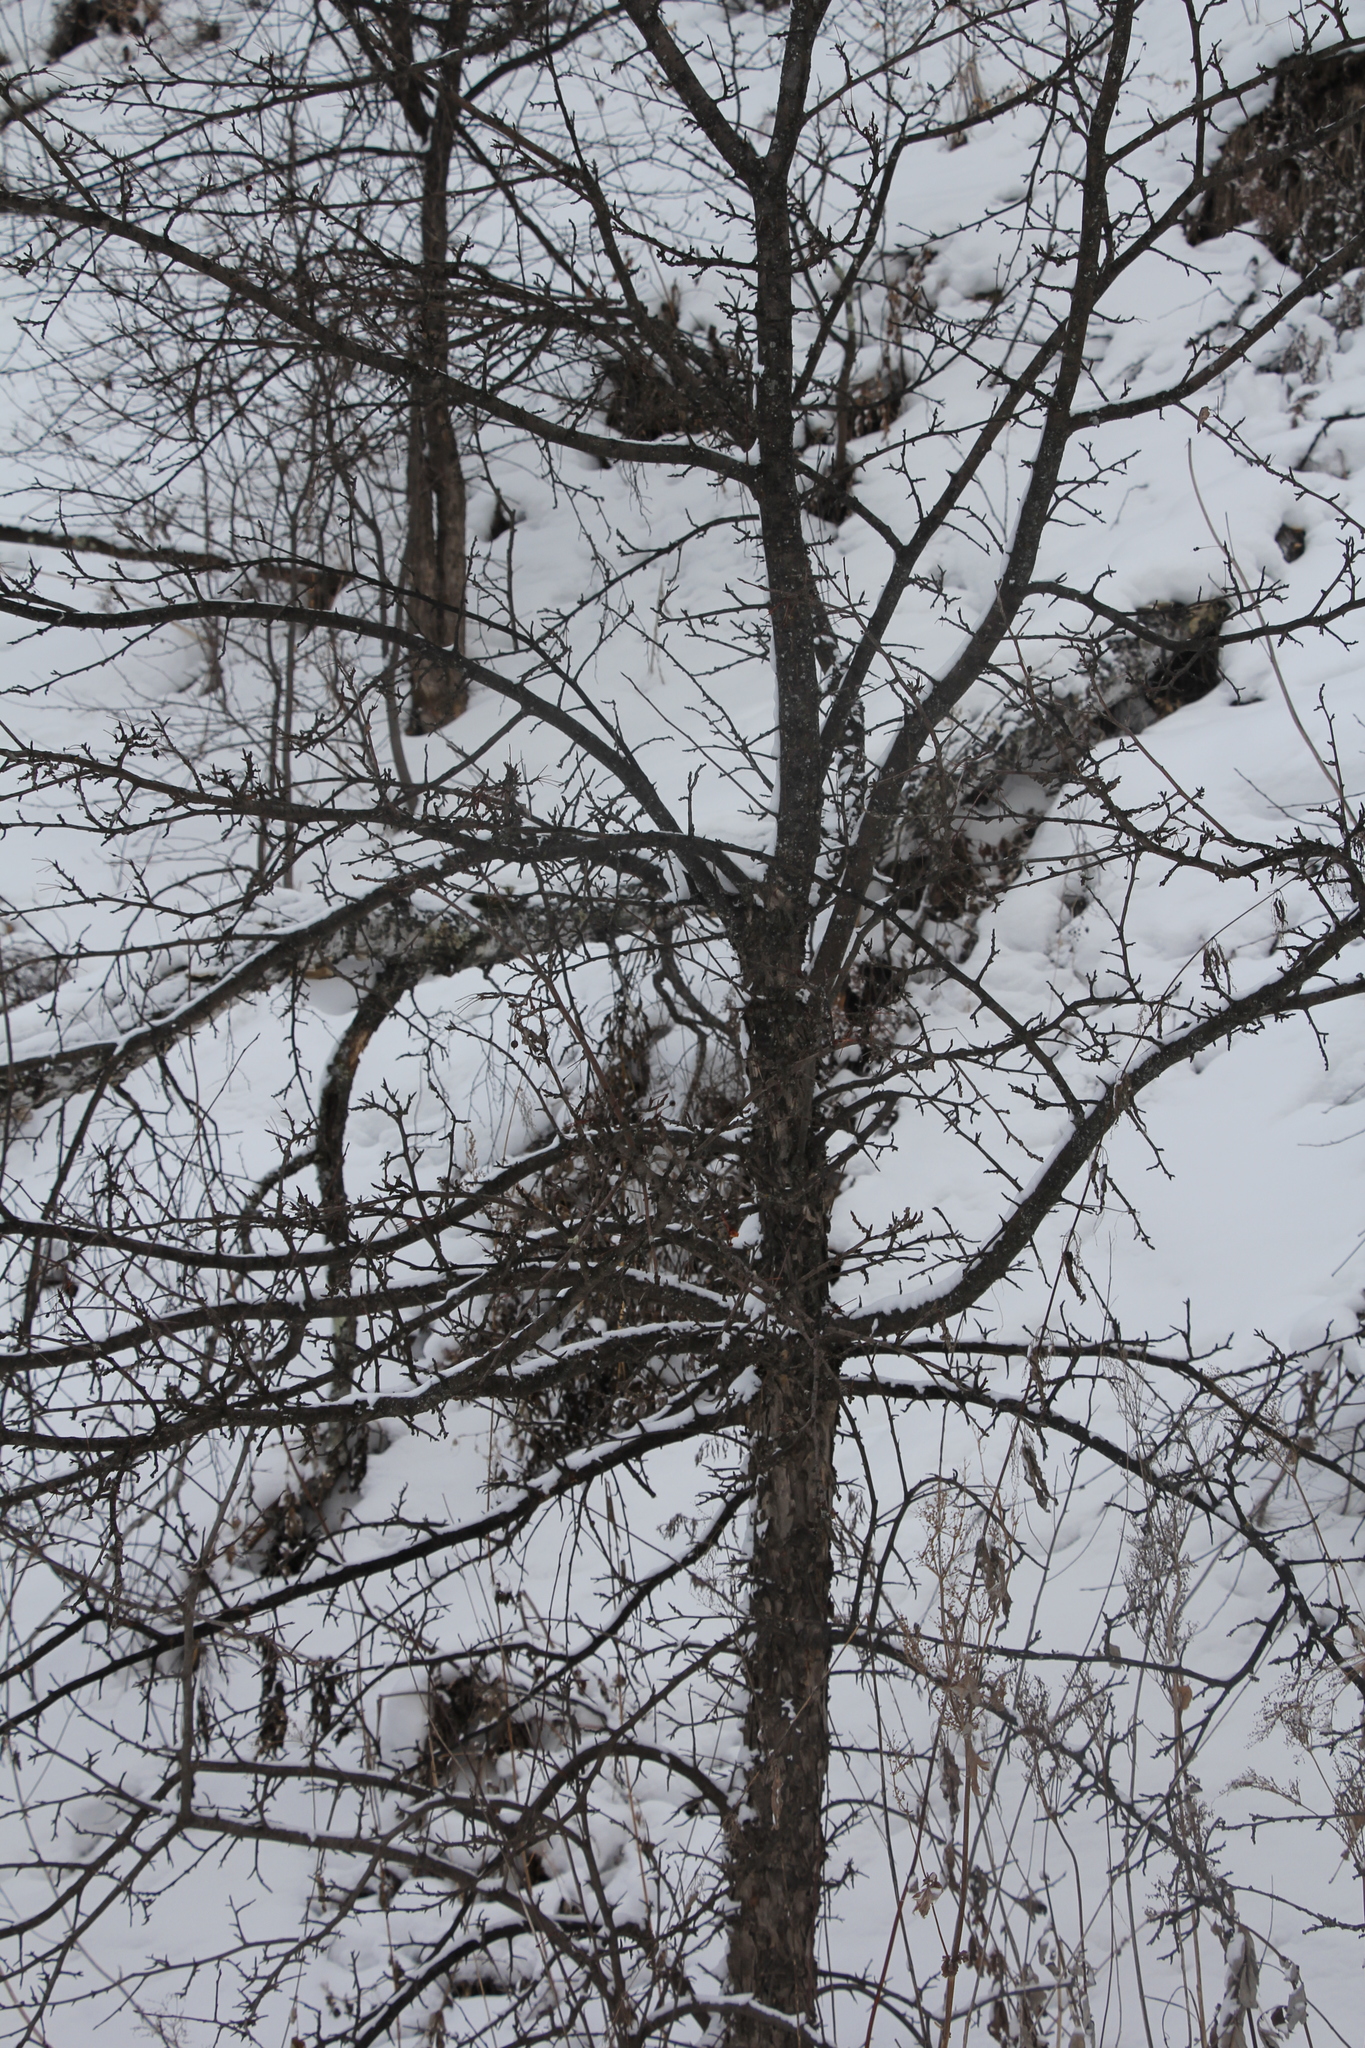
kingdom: Plantae
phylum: Tracheophyta
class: Magnoliopsida
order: Rosales
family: Rosaceae
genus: Malus
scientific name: Malus baccata
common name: Siberian crab
